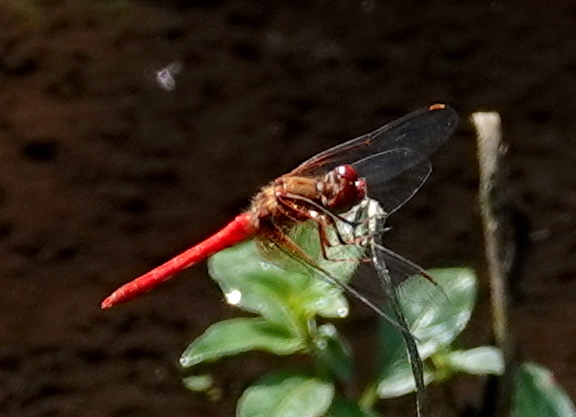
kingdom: Animalia
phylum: Arthropoda
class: Insecta
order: Odonata
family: Libellulidae
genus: Sympetrum
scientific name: Sympetrum illotum
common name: Cardinal meadowhawk
